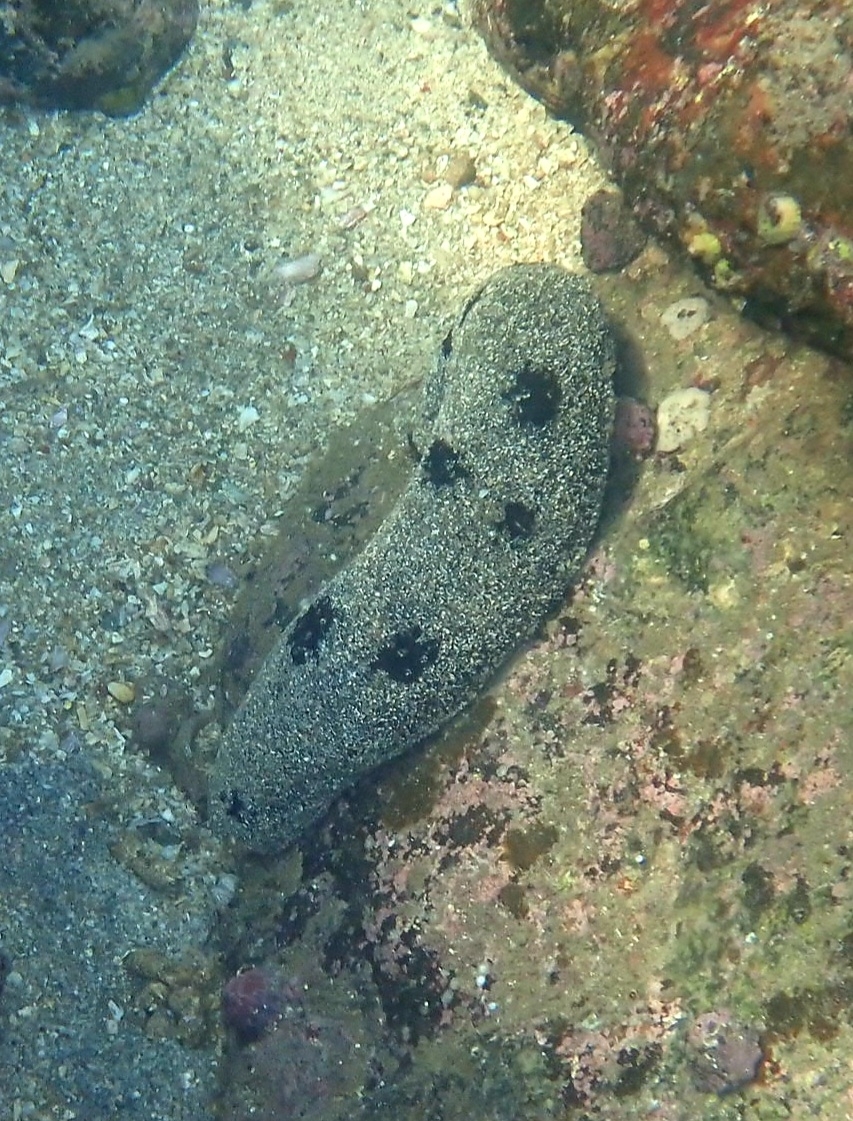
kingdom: Animalia
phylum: Echinodermata
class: Holothuroidea
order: Holothuriida
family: Holothuriidae
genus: Holothuria
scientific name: Holothuria atra
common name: Lollyfish
